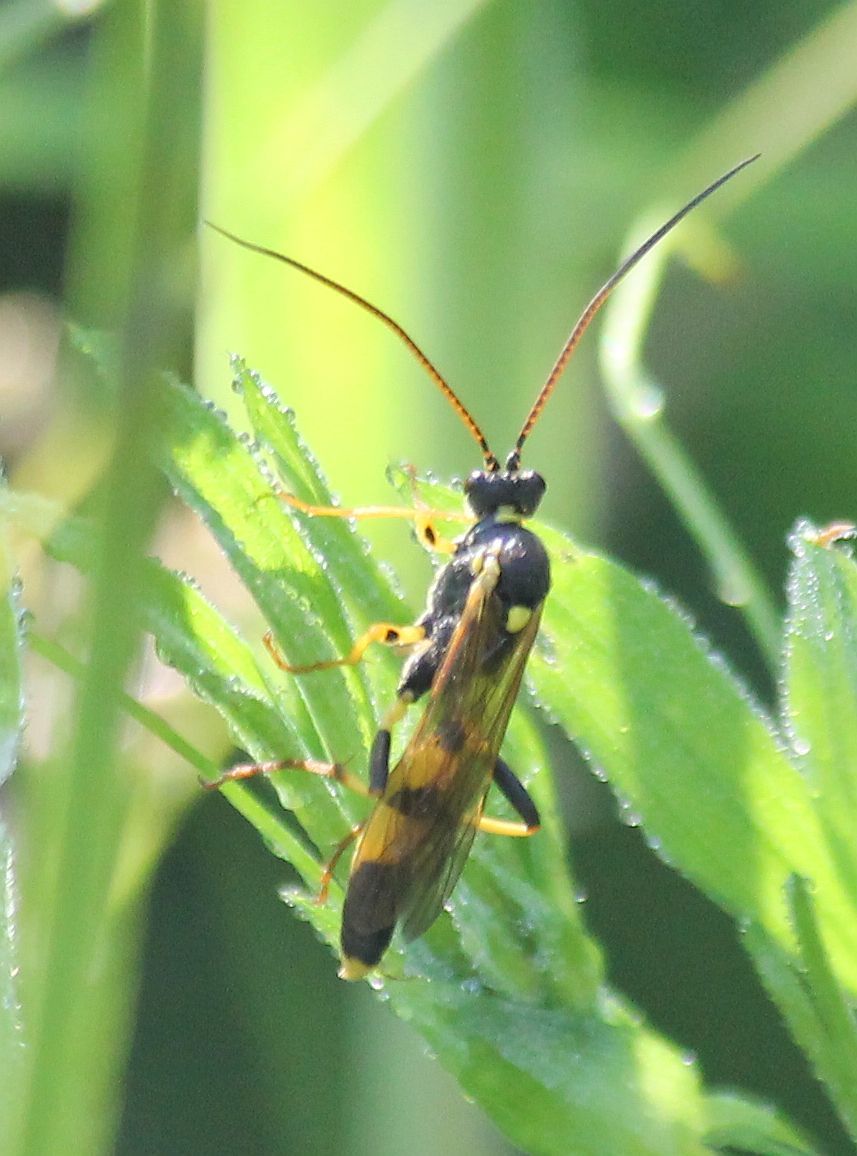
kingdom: Animalia
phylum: Arthropoda
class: Insecta
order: Hymenoptera
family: Ichneumonidae
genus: Amblyteles
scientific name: Amblyteles armatorius
